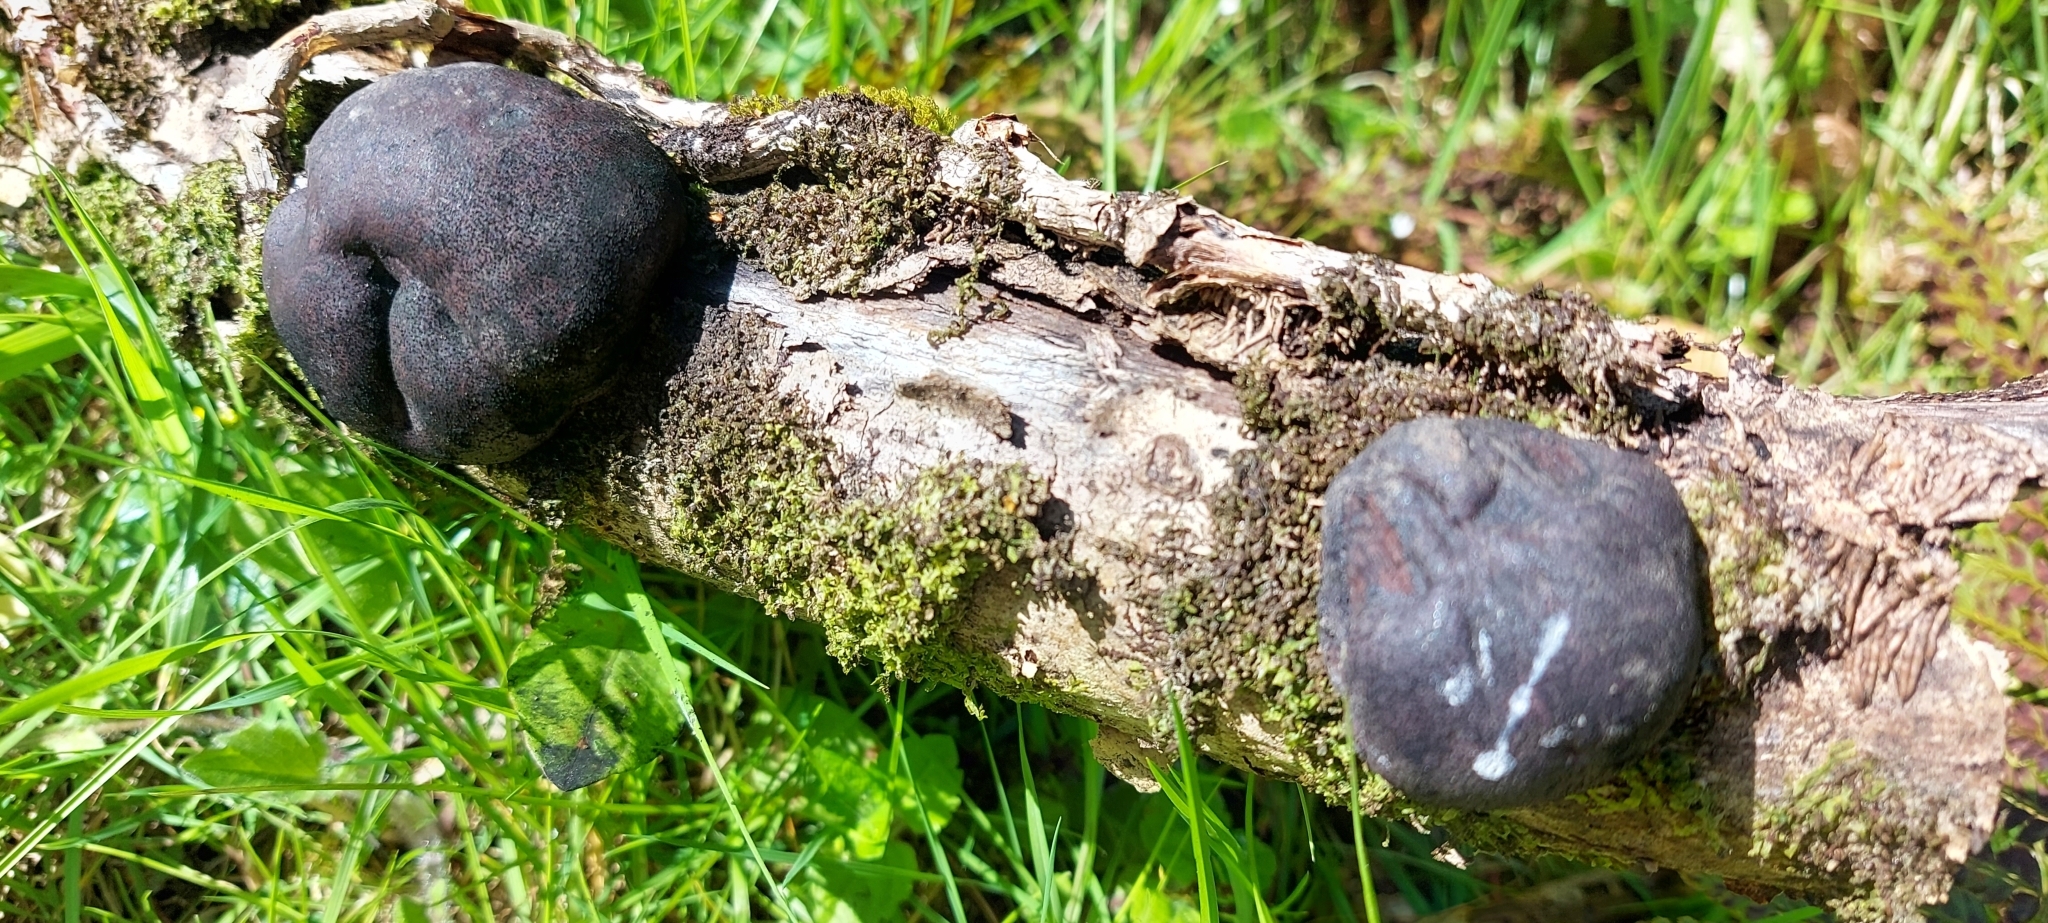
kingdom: Fungi
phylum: Ascomycota
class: Sordariomycetes
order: Xylariales
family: Hypoxylaceae
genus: Daldinia
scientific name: Daldinia concentrica
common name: Cramp balls
